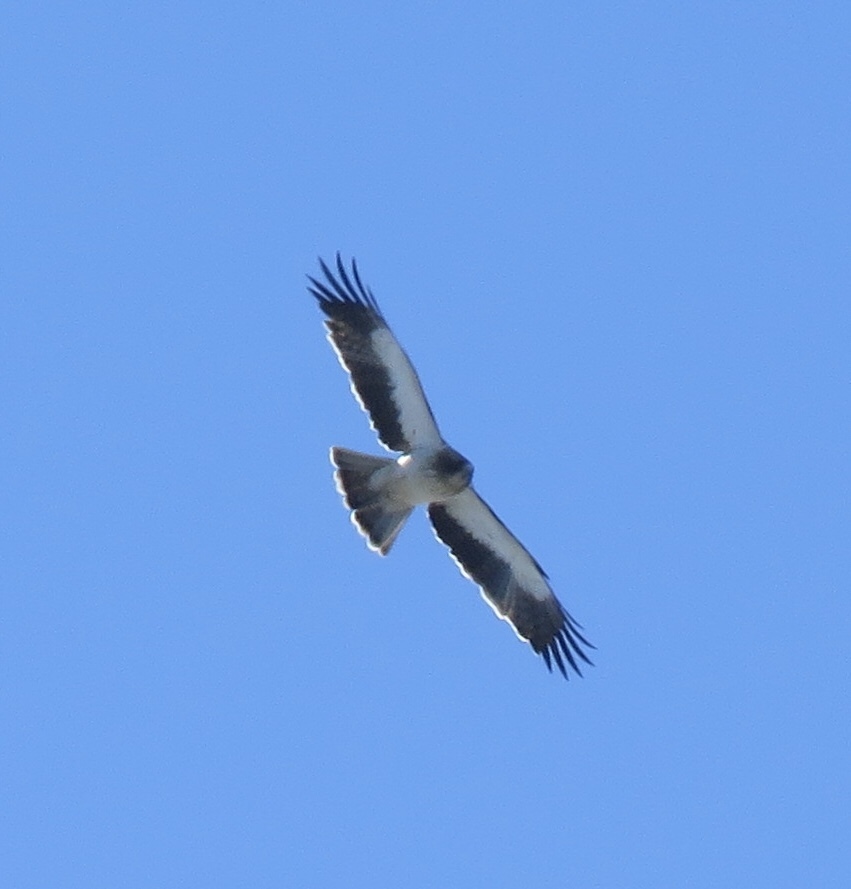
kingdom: Animalia
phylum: Chordata
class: Aves
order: Accipitriformes
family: Accipitridae
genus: Hieraaetus
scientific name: Hieraaetus pennatus
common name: Booted eagle
